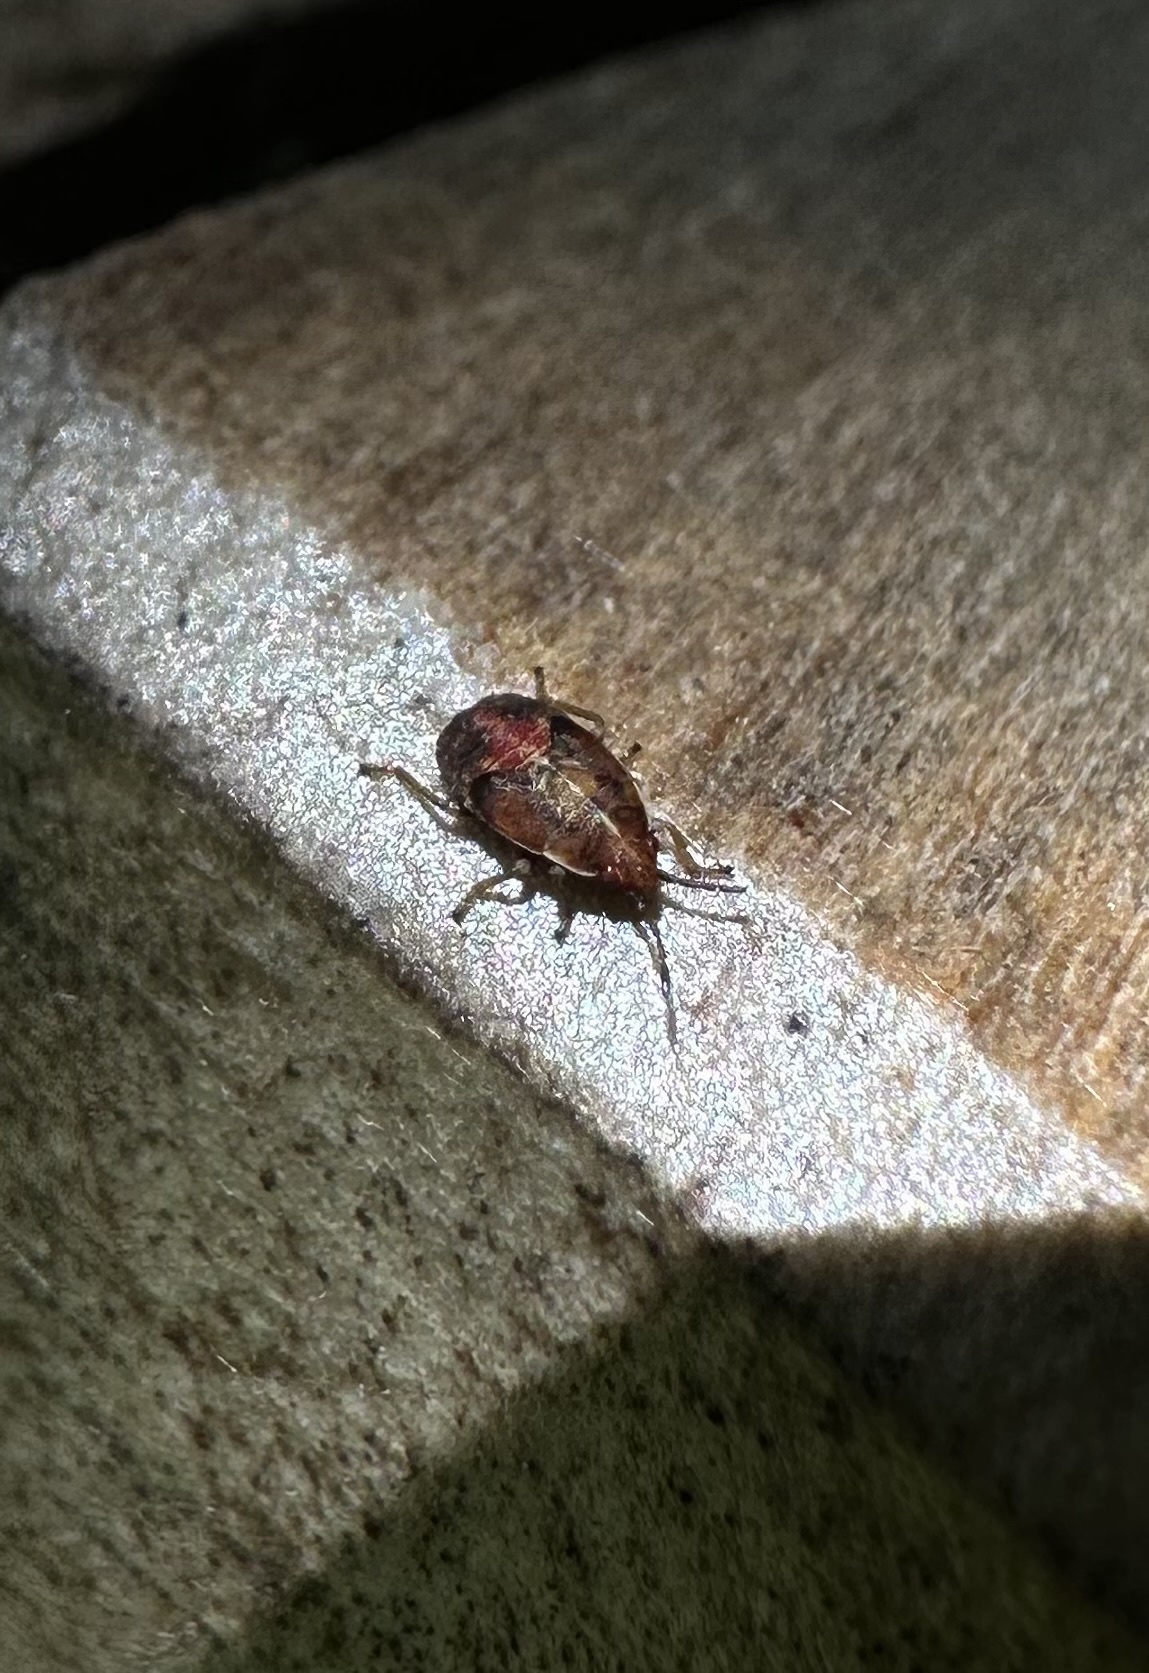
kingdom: Animalia
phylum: Arthropoda
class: Insecta
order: Hemiptera
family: Lygaeidae
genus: Syzygitis
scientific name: Syzygitis poecilus
